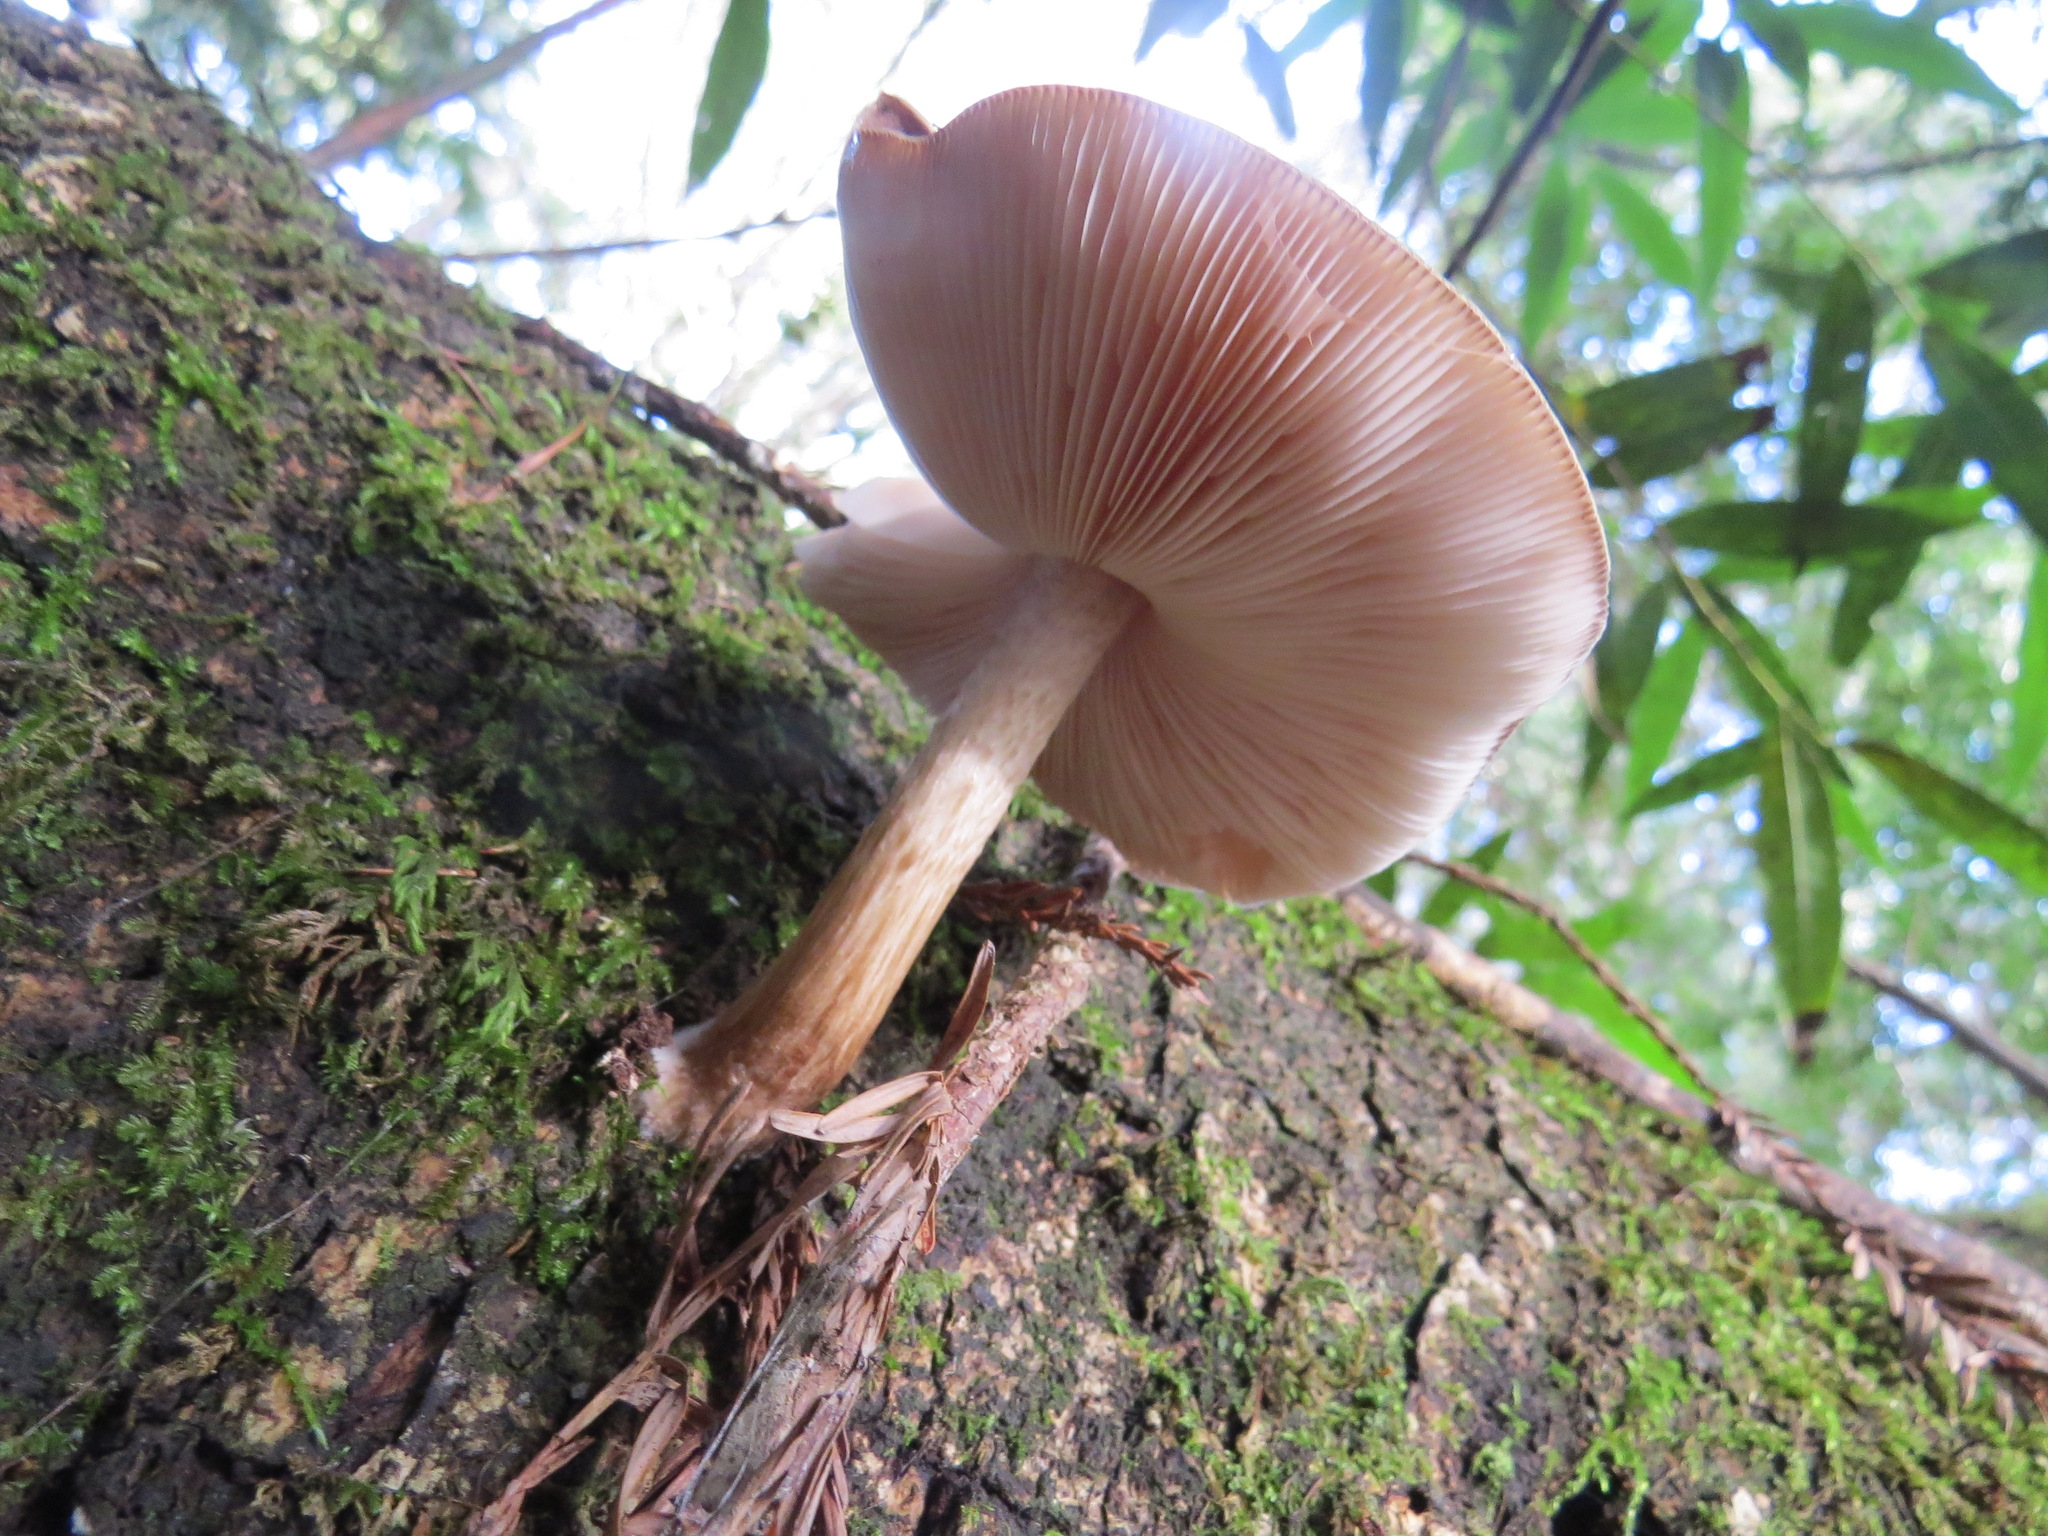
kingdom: Fungi
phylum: Basidiomycota
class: Agaricomycetes
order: Agaricales
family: Pluteaceae
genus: Pluteus
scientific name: Pluteus exilis
